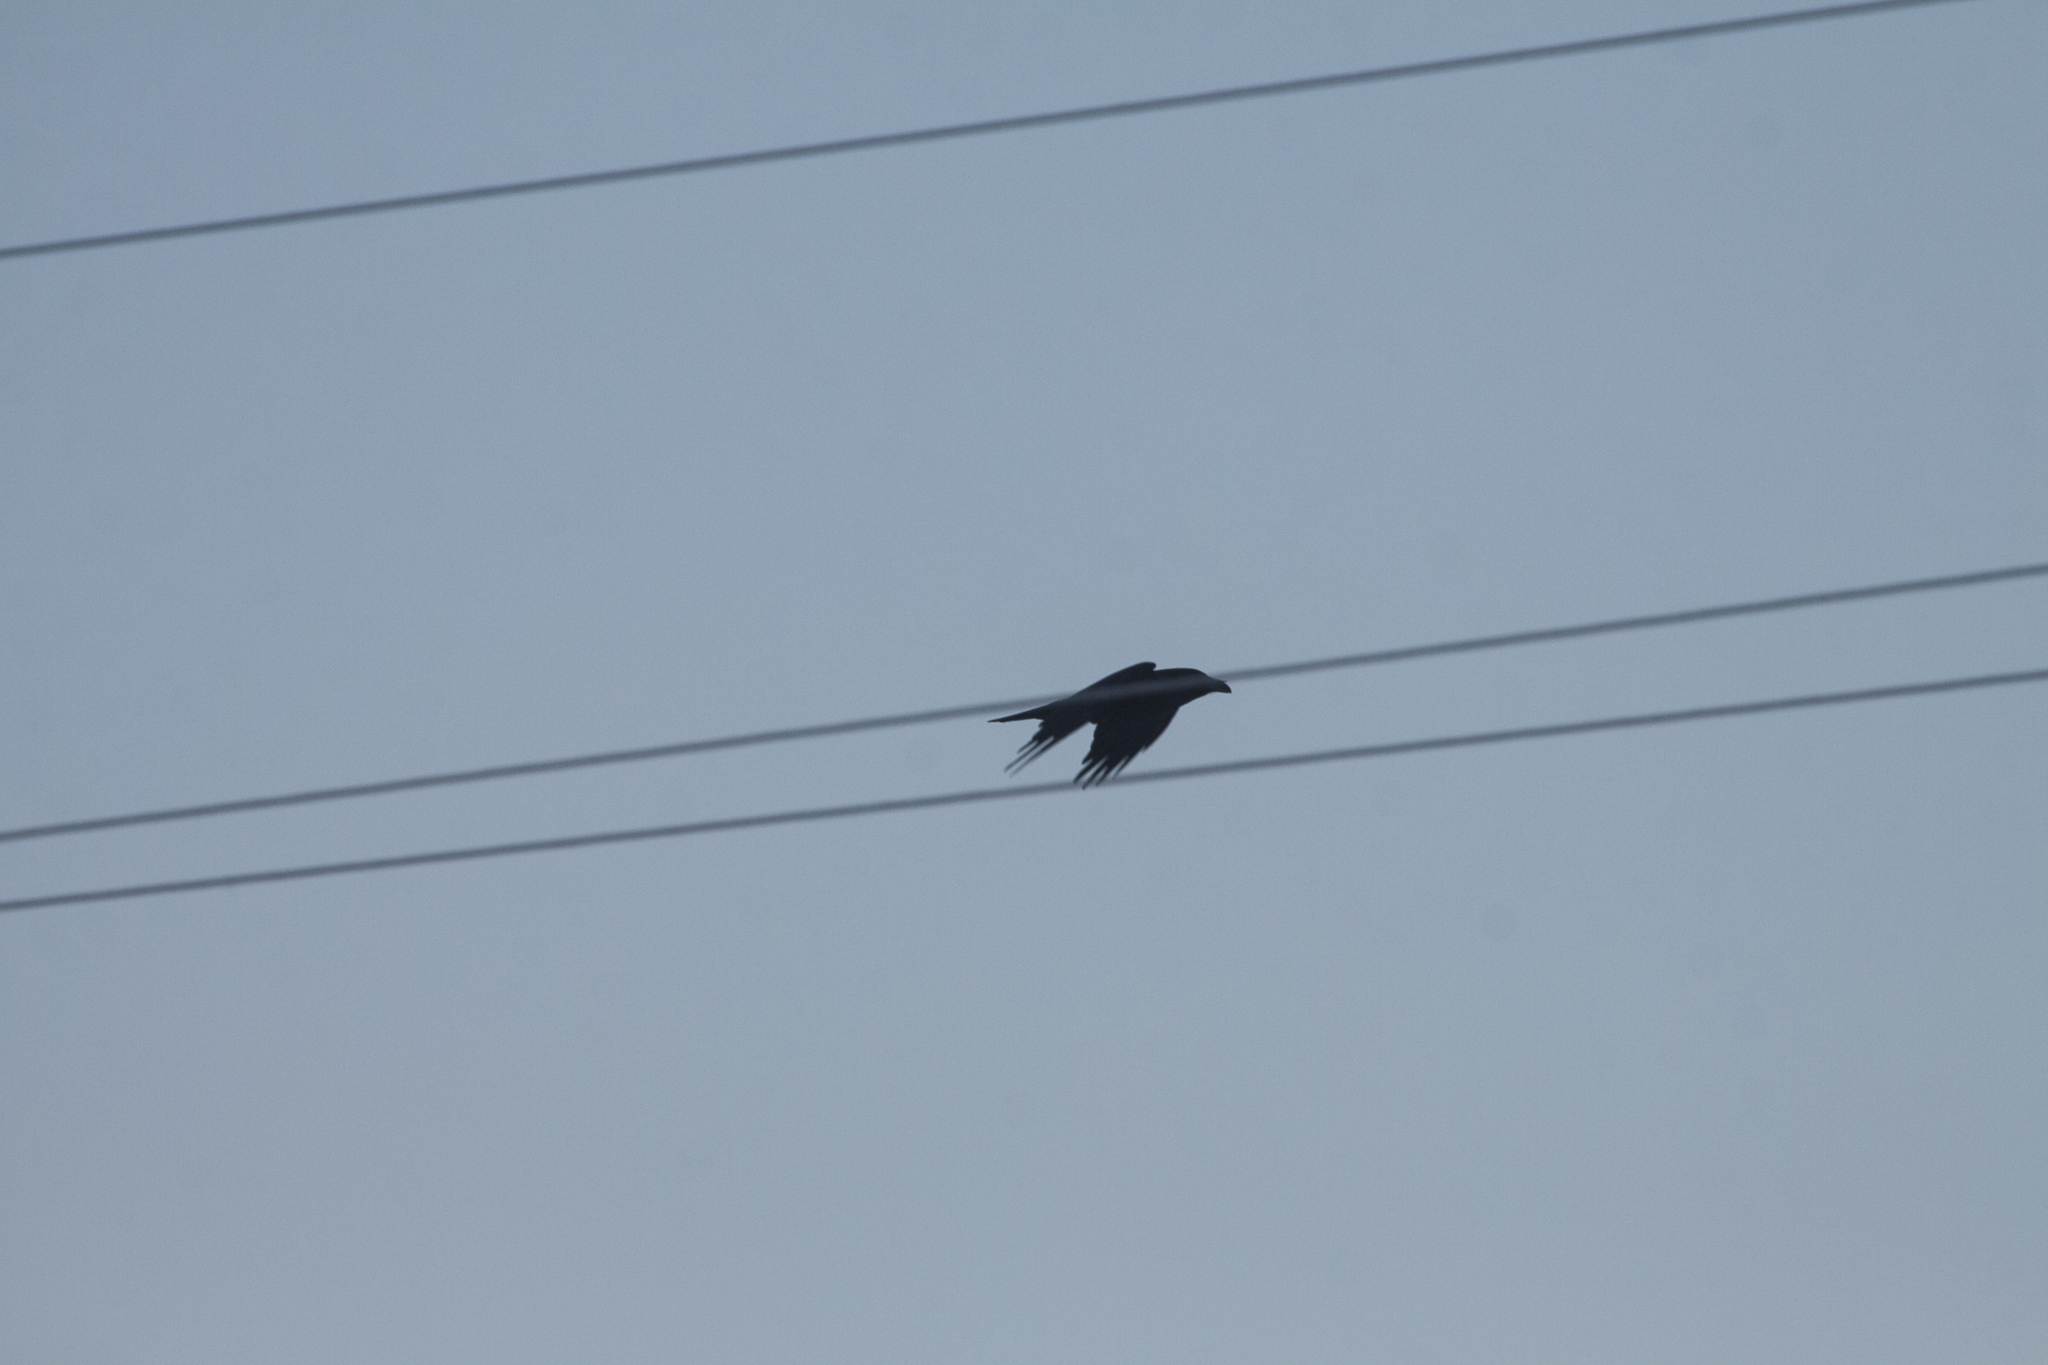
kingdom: Animalia
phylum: Chordata
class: Aves
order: Passeriformes
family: Corvidae
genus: Corvus
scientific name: Corvus corax
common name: Common raven
